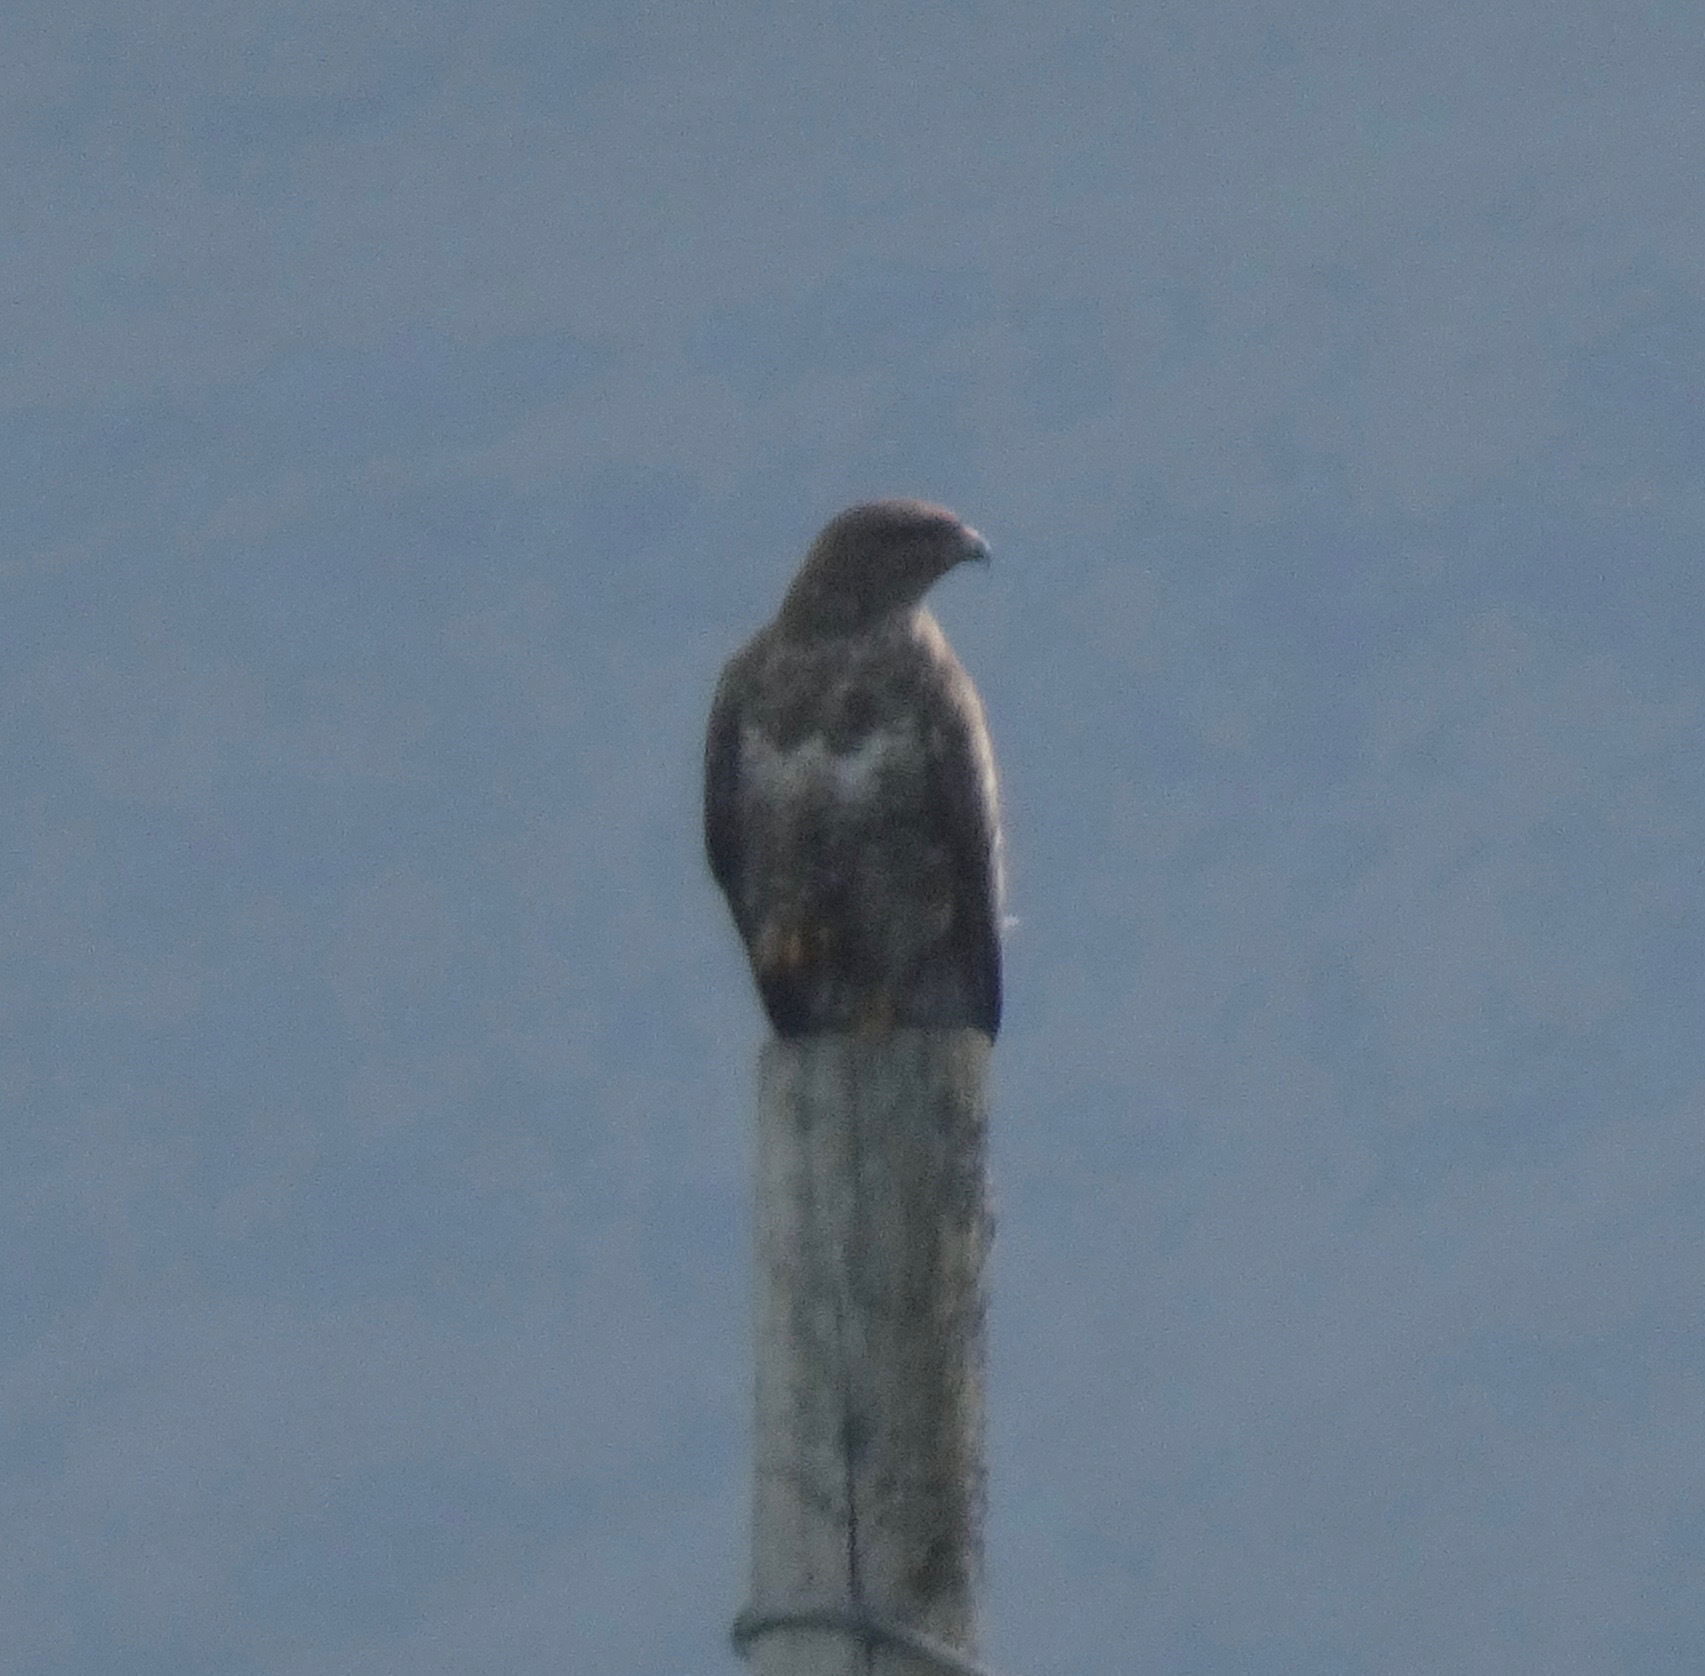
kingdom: Animalia
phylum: Chordata
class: Aves
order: Accipitriformes
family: Accipitridae
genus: Buteo
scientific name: Buteo buteo
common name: Common buzzard
